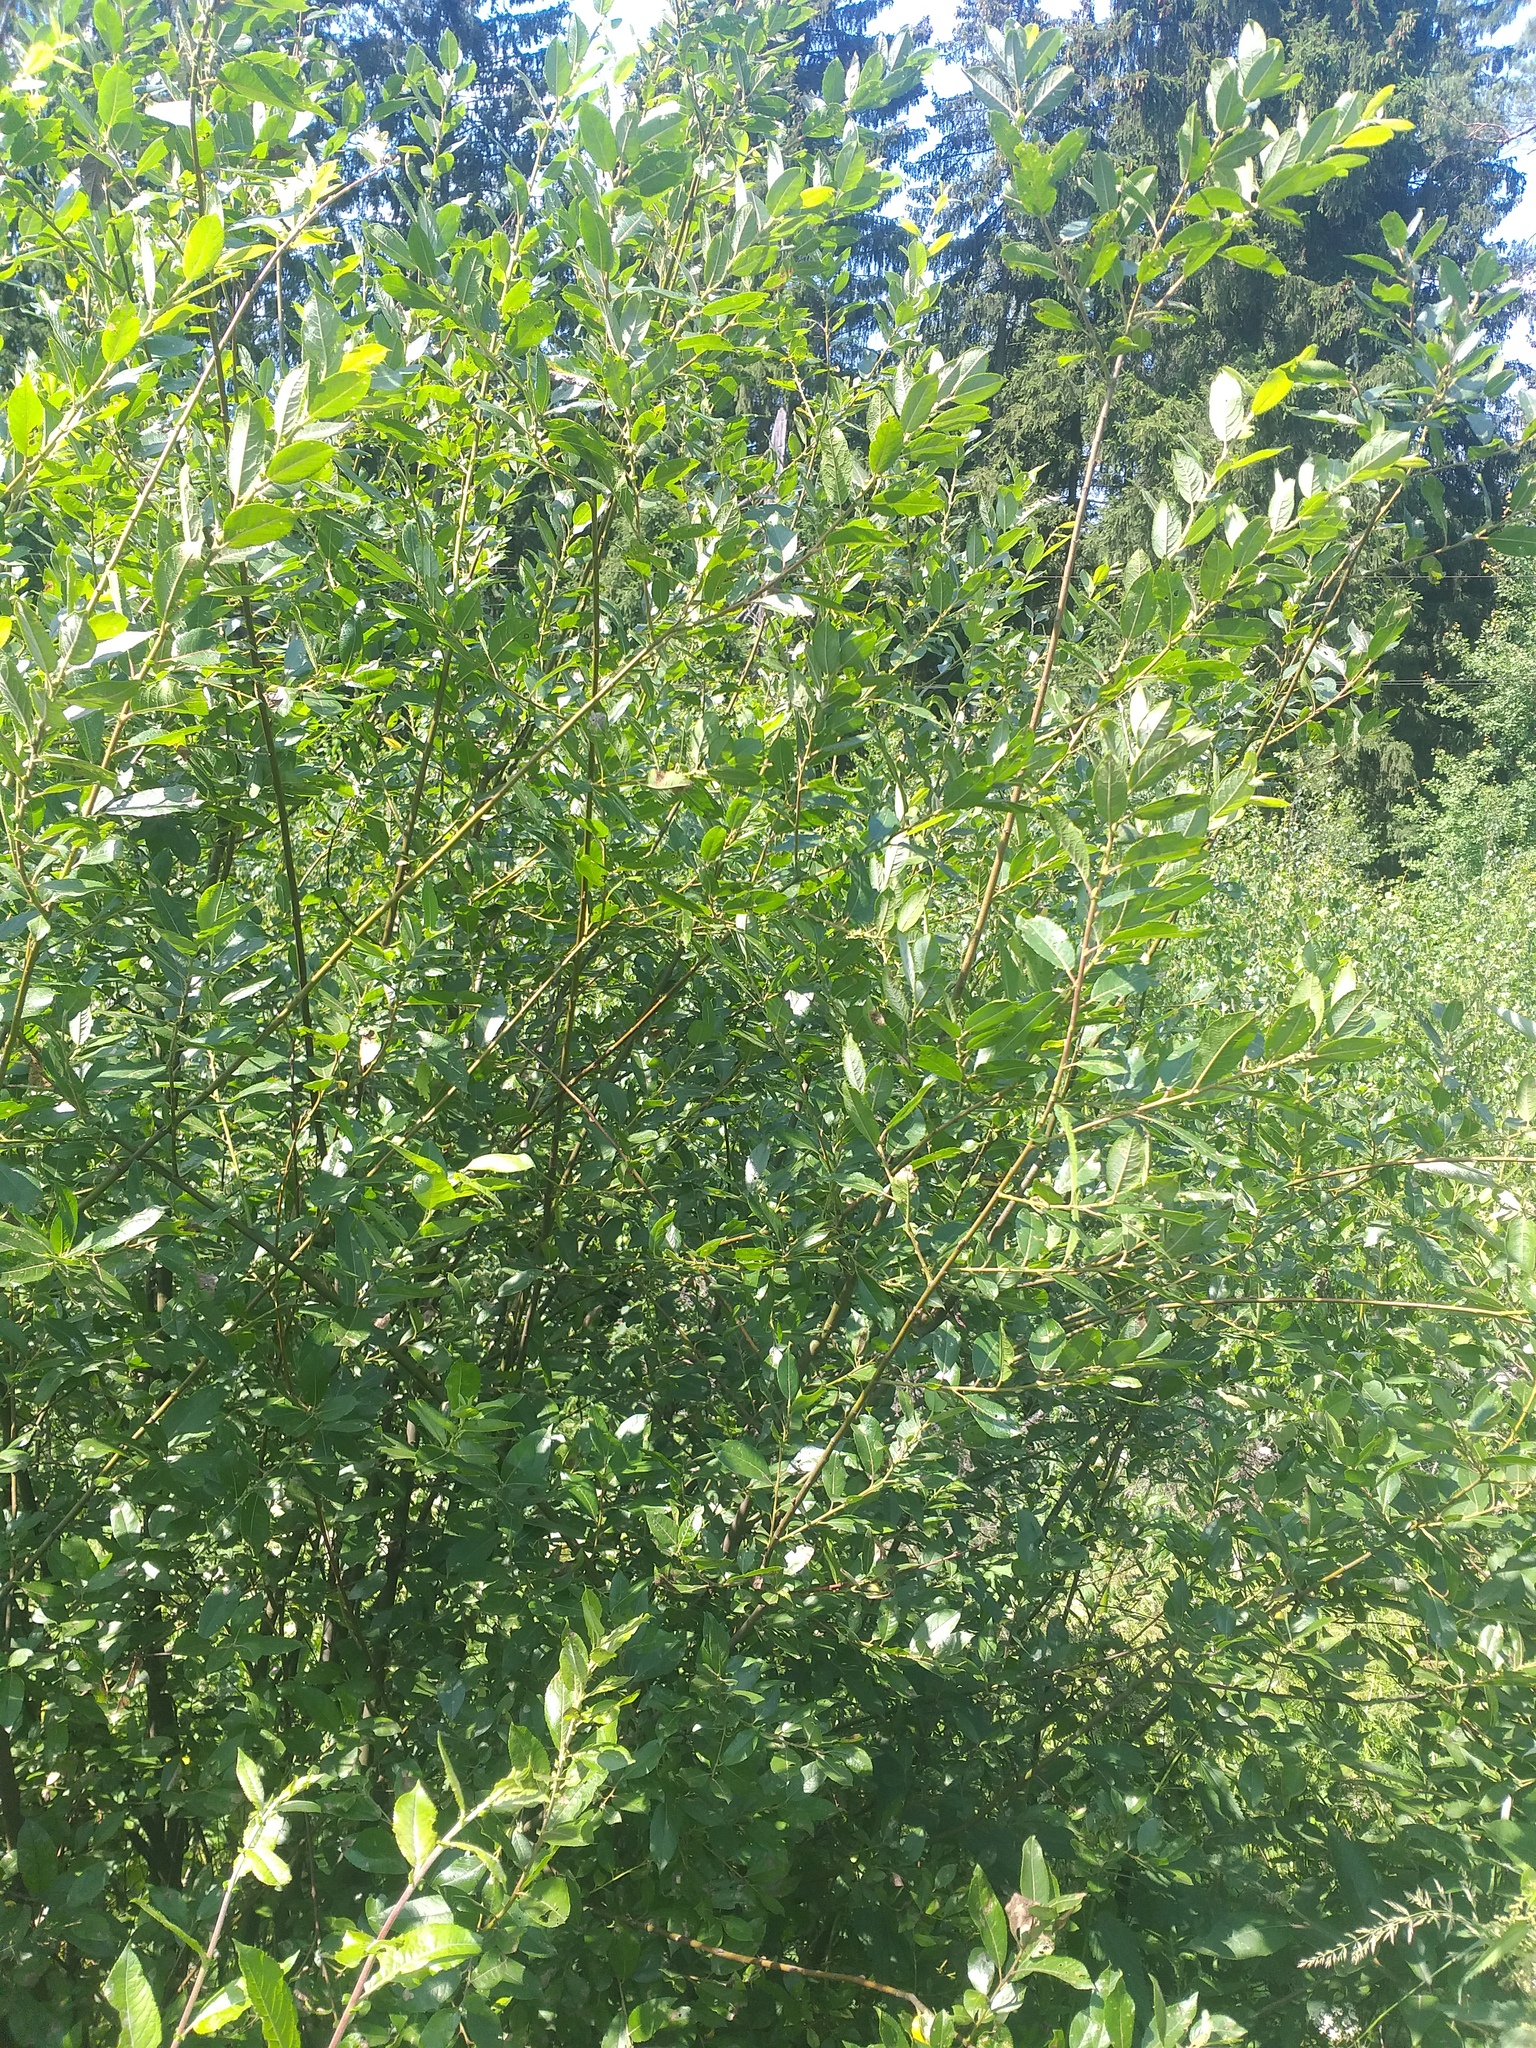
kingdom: Plantae
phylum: Tracheophyta
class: Magnoliopsida
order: Malpighiales
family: Salicaceae
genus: Salix
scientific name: Salix myrsinifolia
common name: Dark-leaved willow
